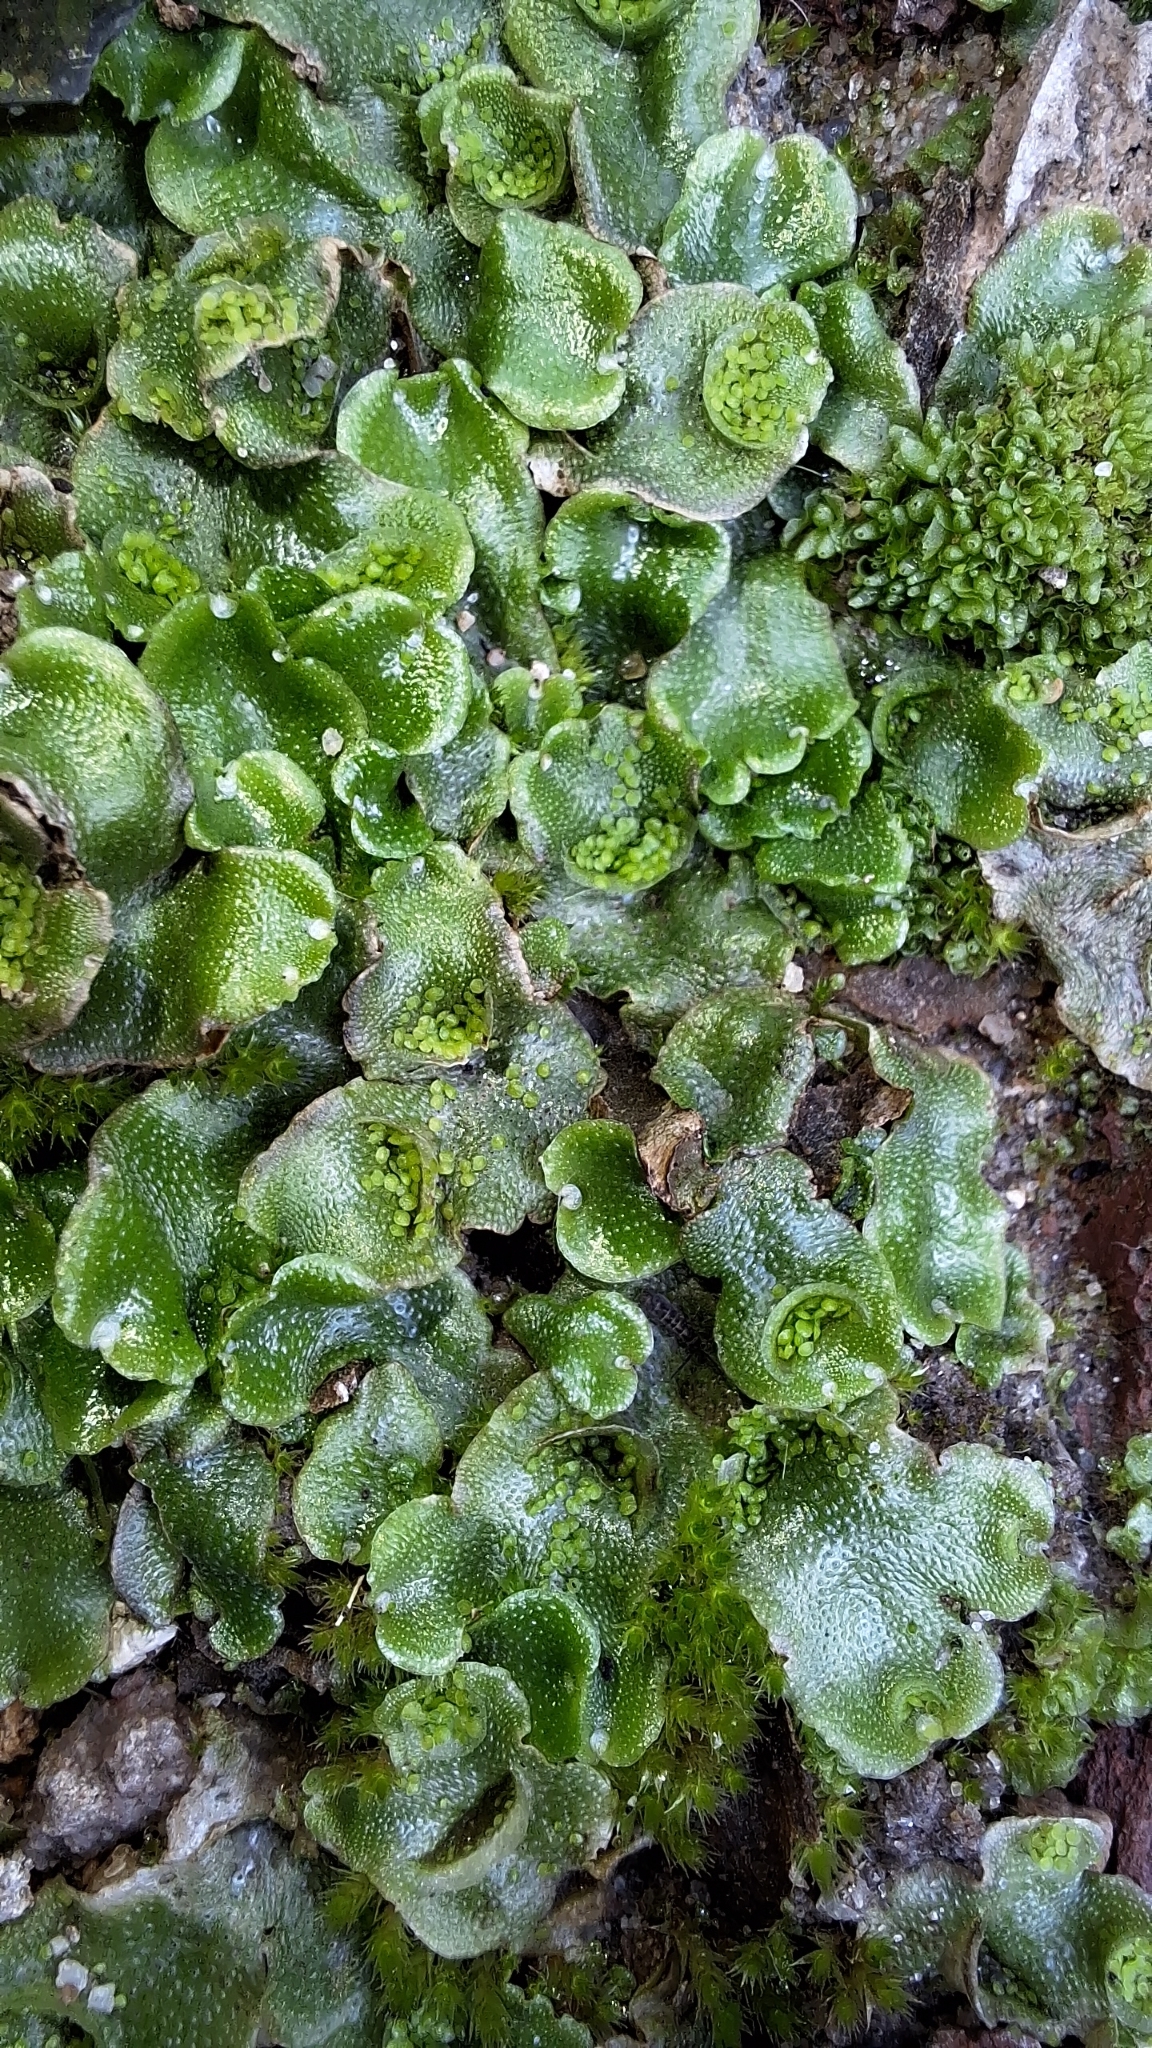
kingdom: Plantae
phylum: Marchantiophyta
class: Marchantiopsida
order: Lunulariales
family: Lunulariaceae
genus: Lunularia
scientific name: Lunularia cruciata
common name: Crescent-cup liverwort
